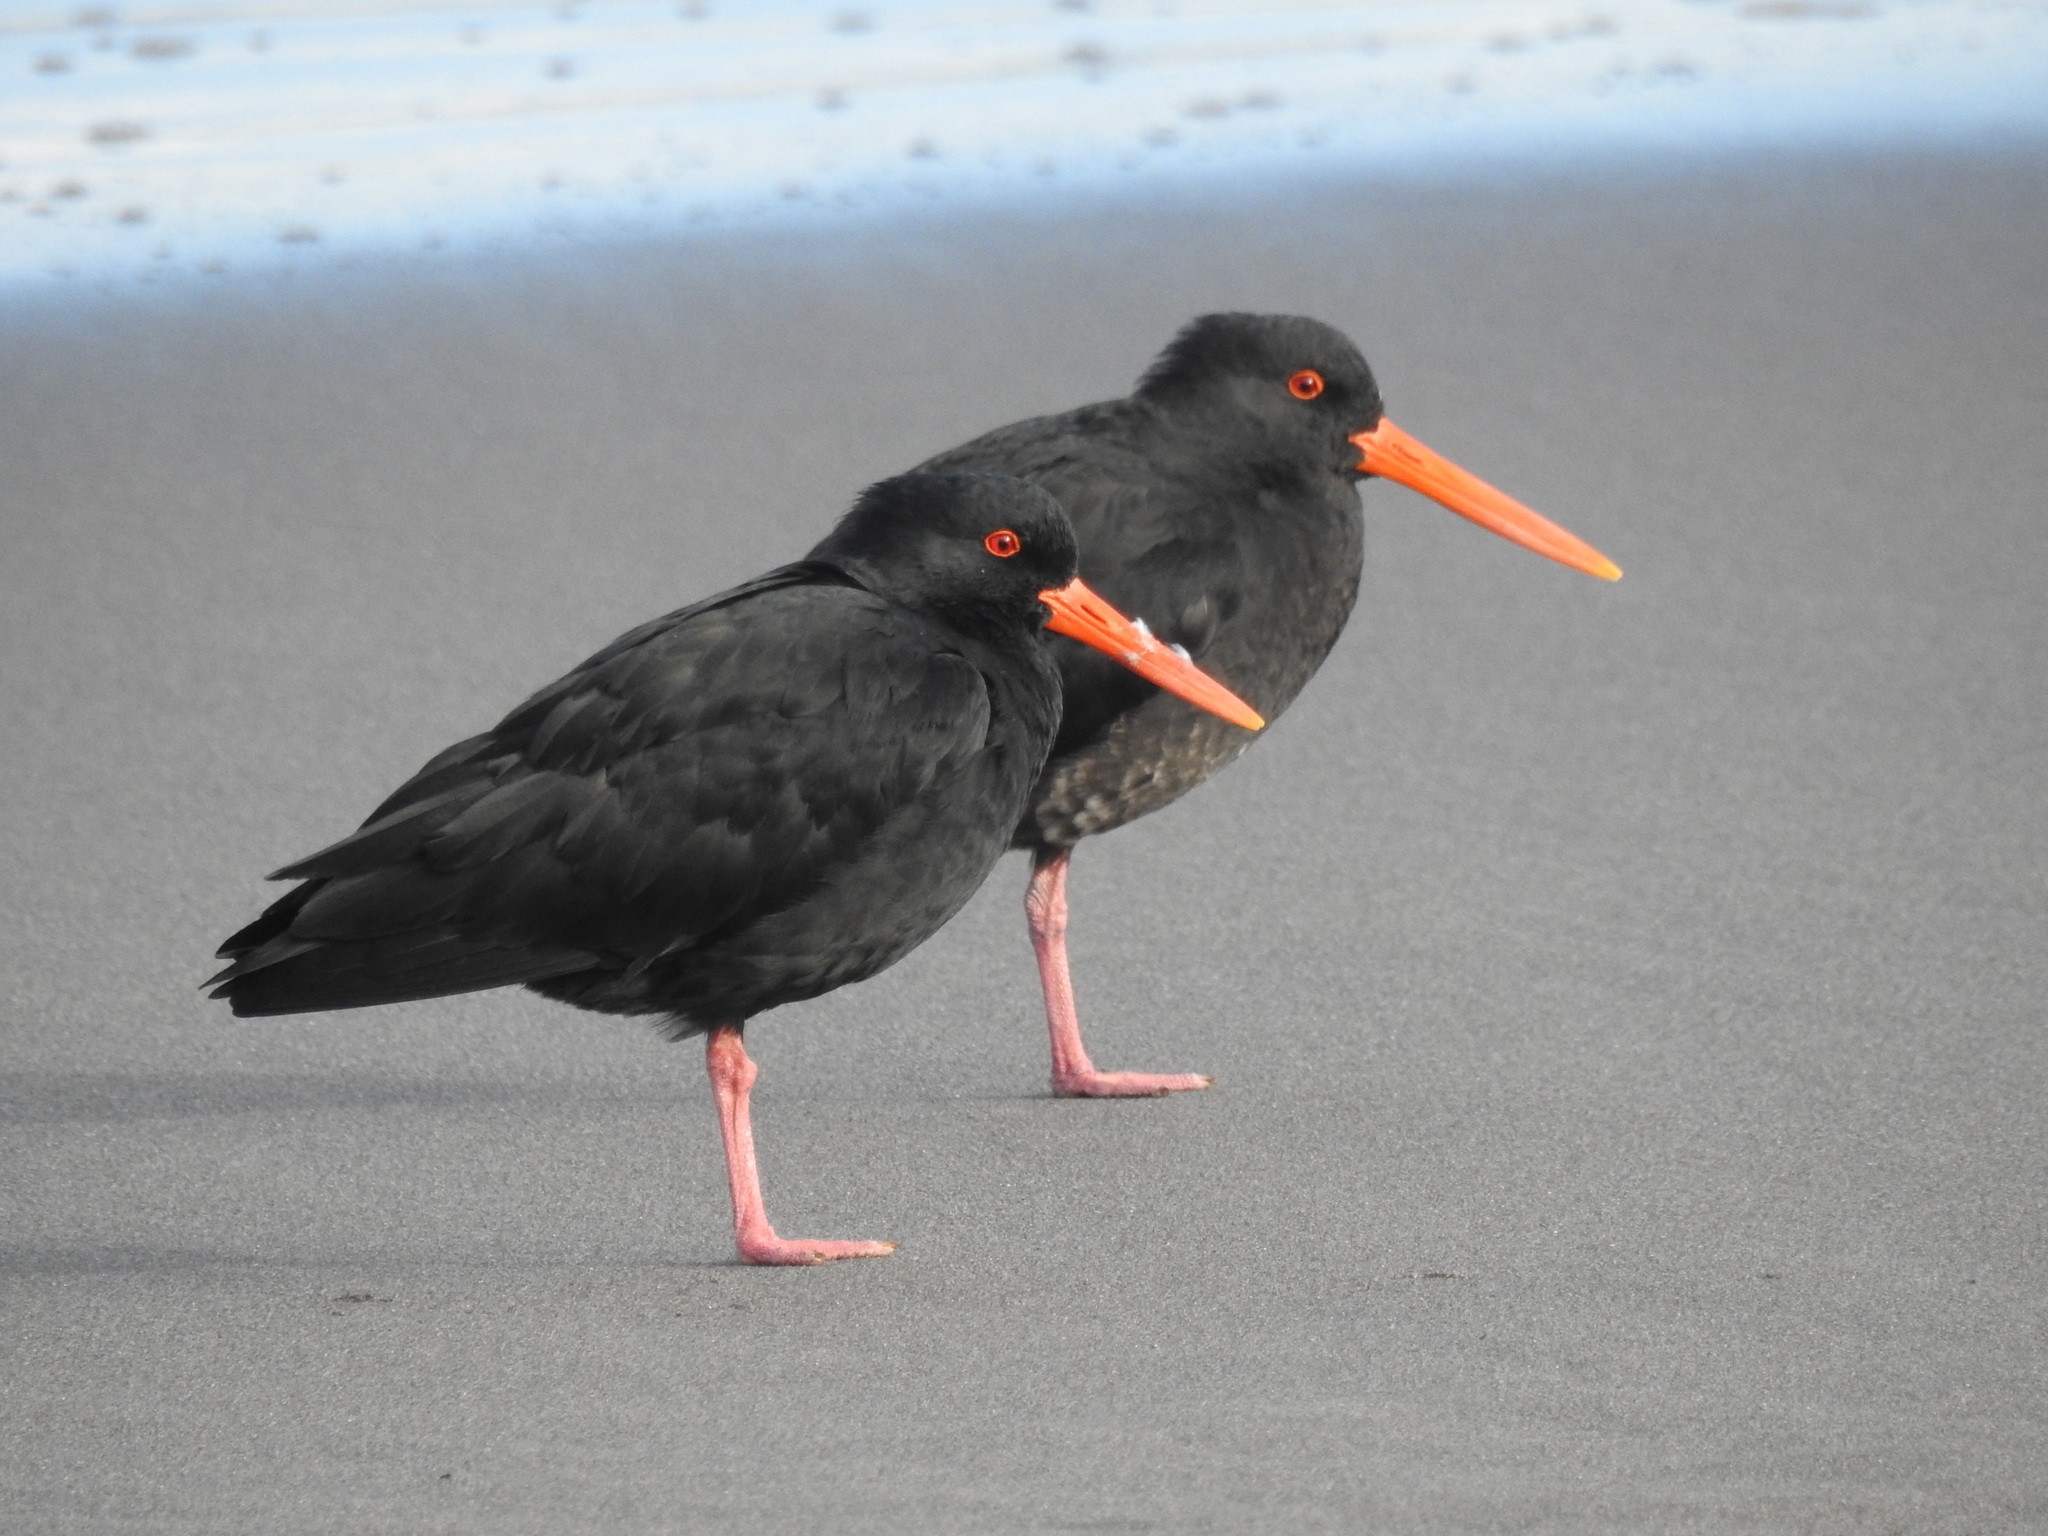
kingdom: Animalia
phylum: Chordata
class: Aves
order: Charadriiformes
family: Haematopodidae
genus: Haematopus
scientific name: Haematopus unicolor
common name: Variable oystercatcher
